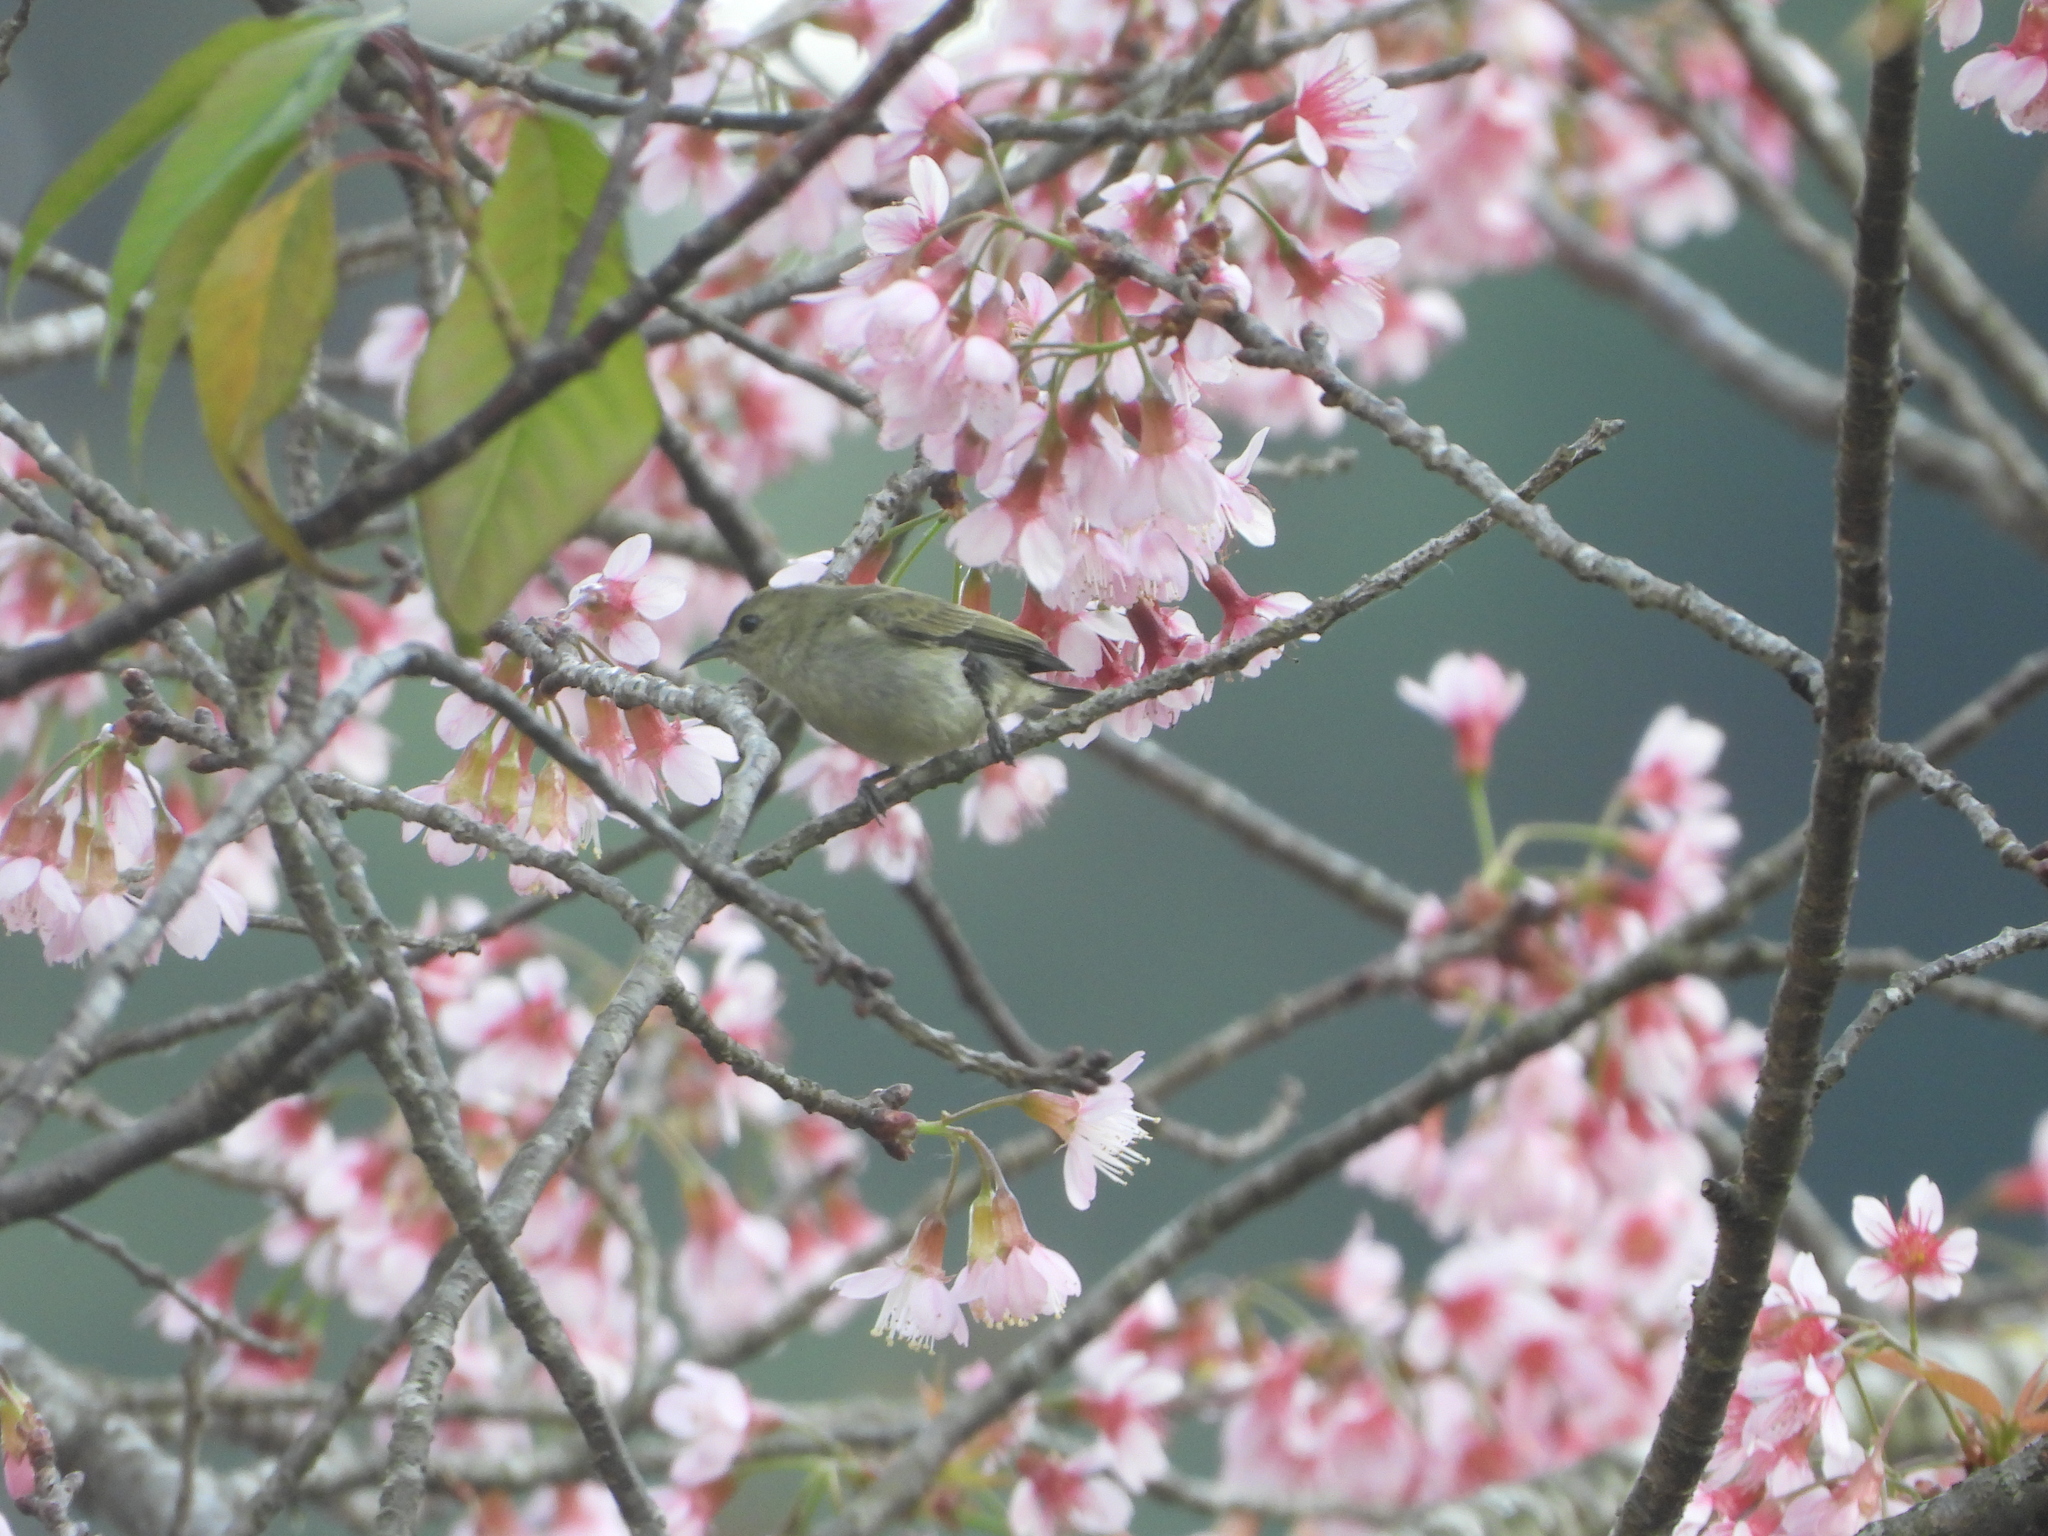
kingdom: Animalia
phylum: Chordata
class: Aves
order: Passeriformes
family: Dicaeidae
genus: Dicaeum
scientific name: Dicaeum minullum
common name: Plain flowerpecker
